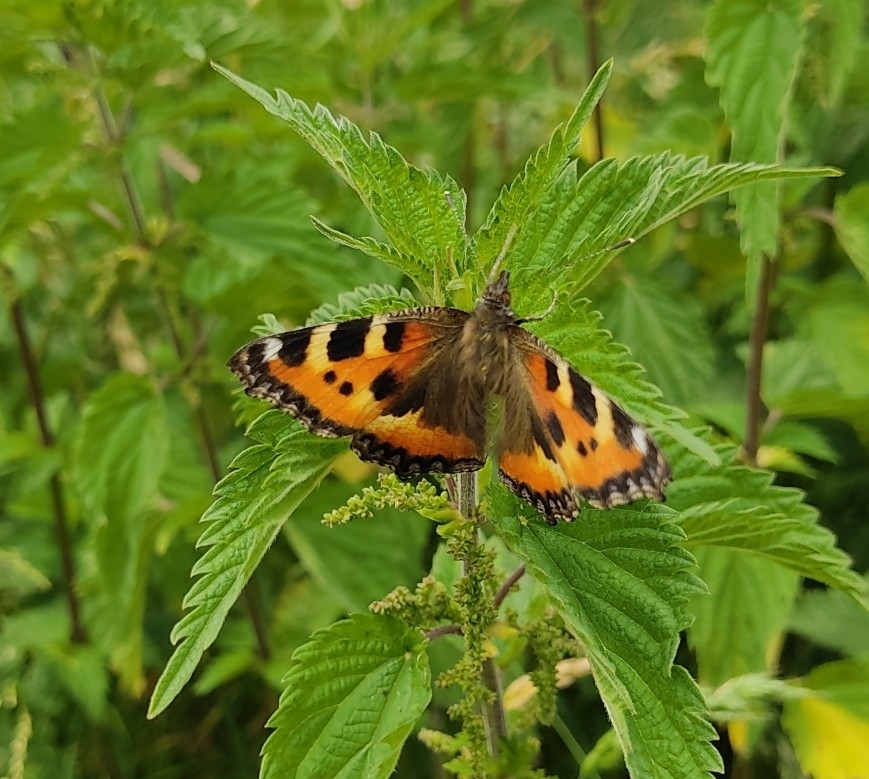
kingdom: Animalia
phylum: Arthropoda
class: Insecta
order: Lepidoptera
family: Nymphalidae
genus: Aglais
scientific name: Aglais urticae
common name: Small tortoiseshell
